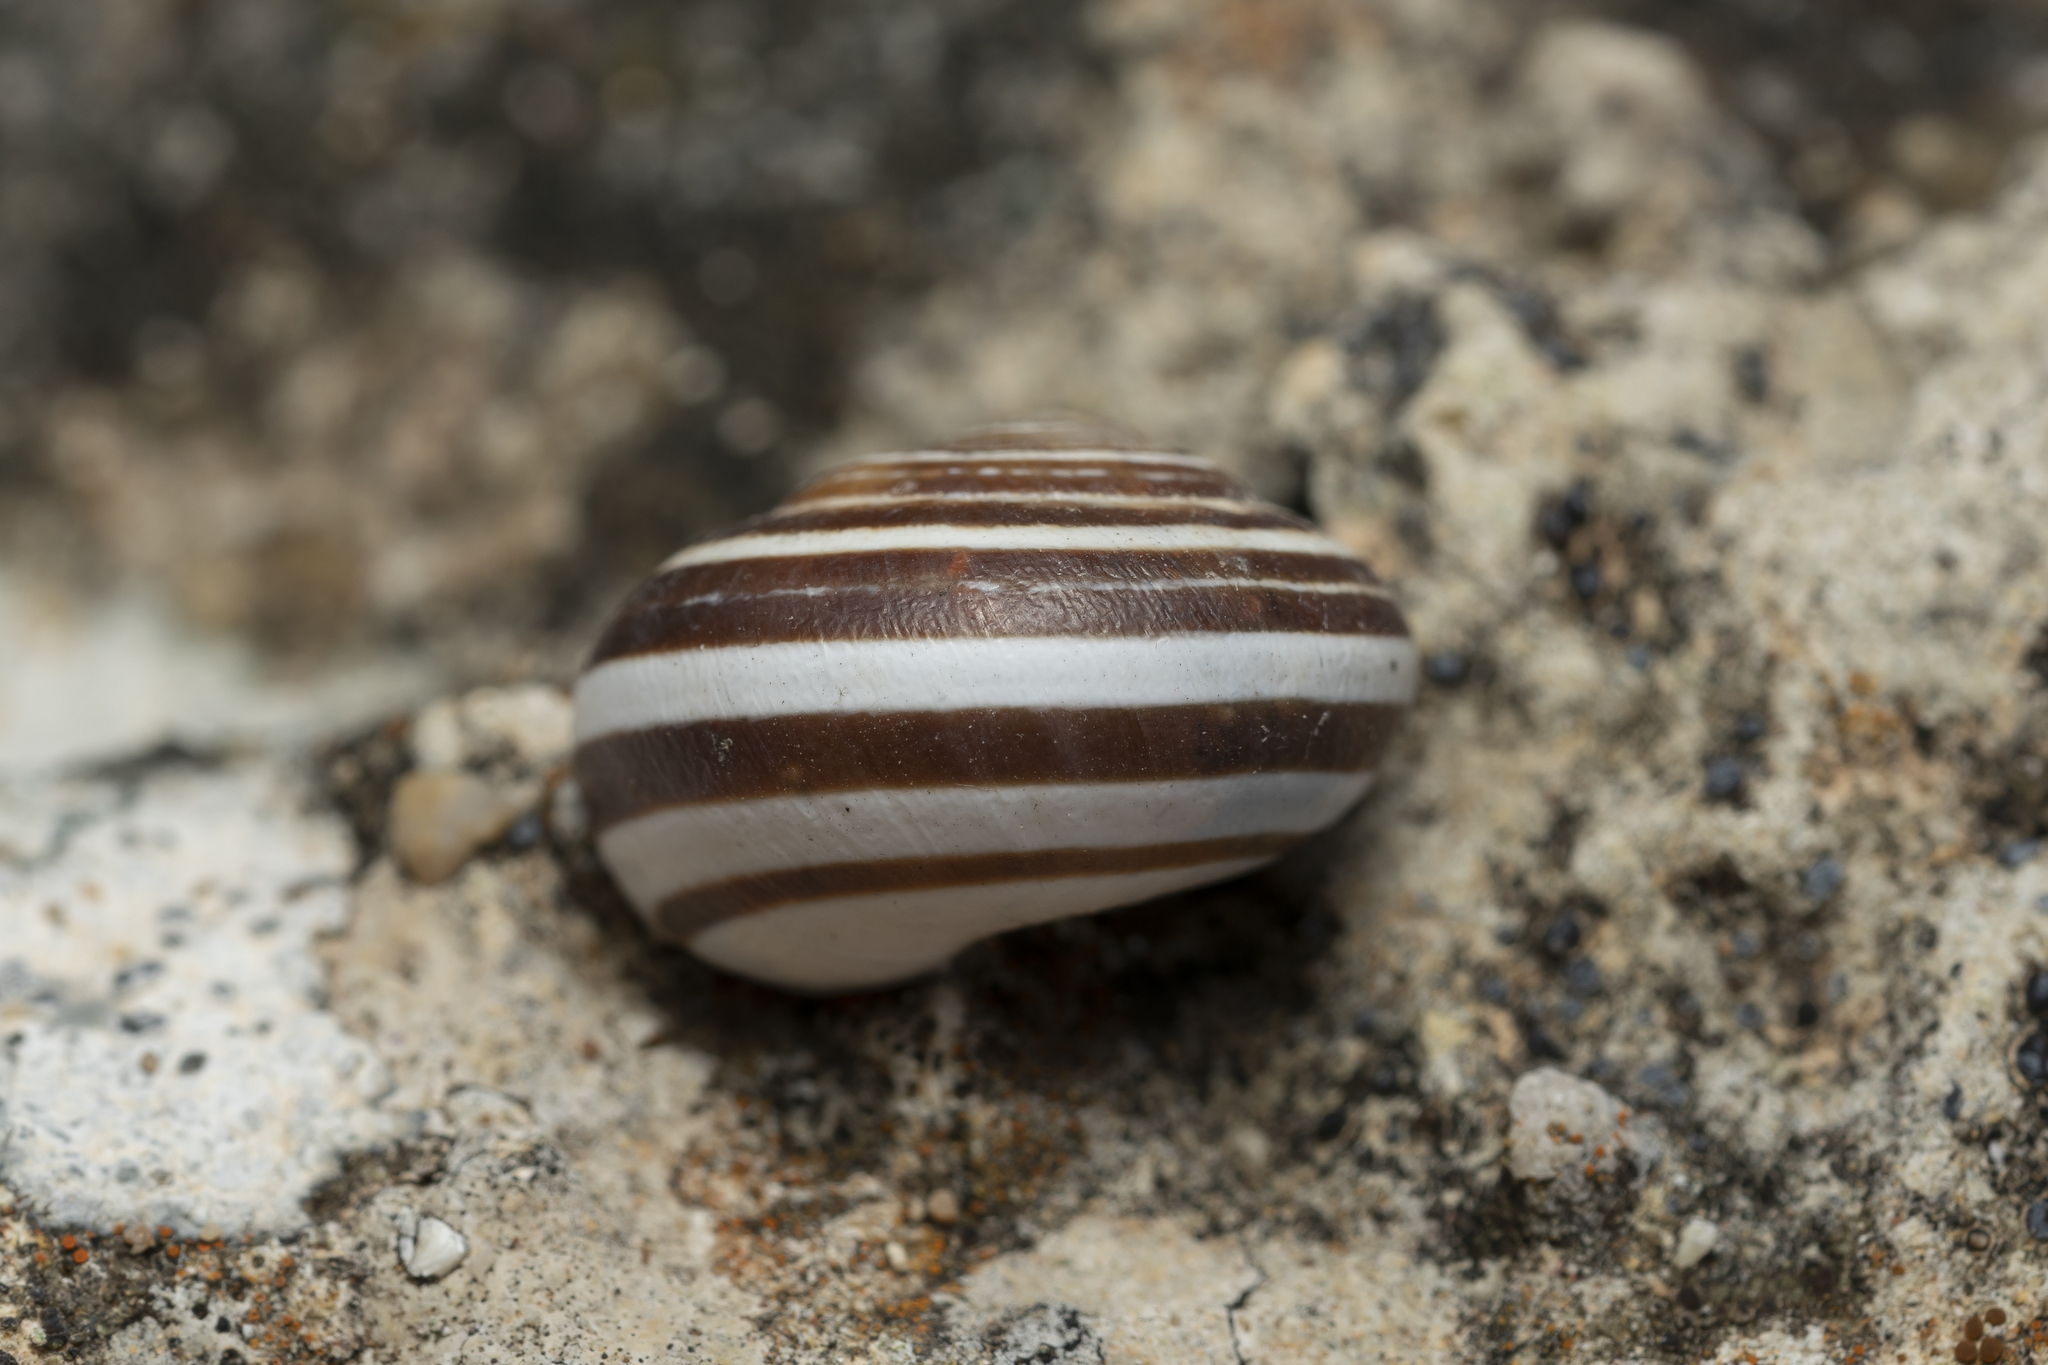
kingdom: Animalia
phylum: Mollusca
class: Gastropoda
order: Stylommatophora
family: Helicidae
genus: Eobania
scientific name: Eobania vermiculata
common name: Chocolateband snail
